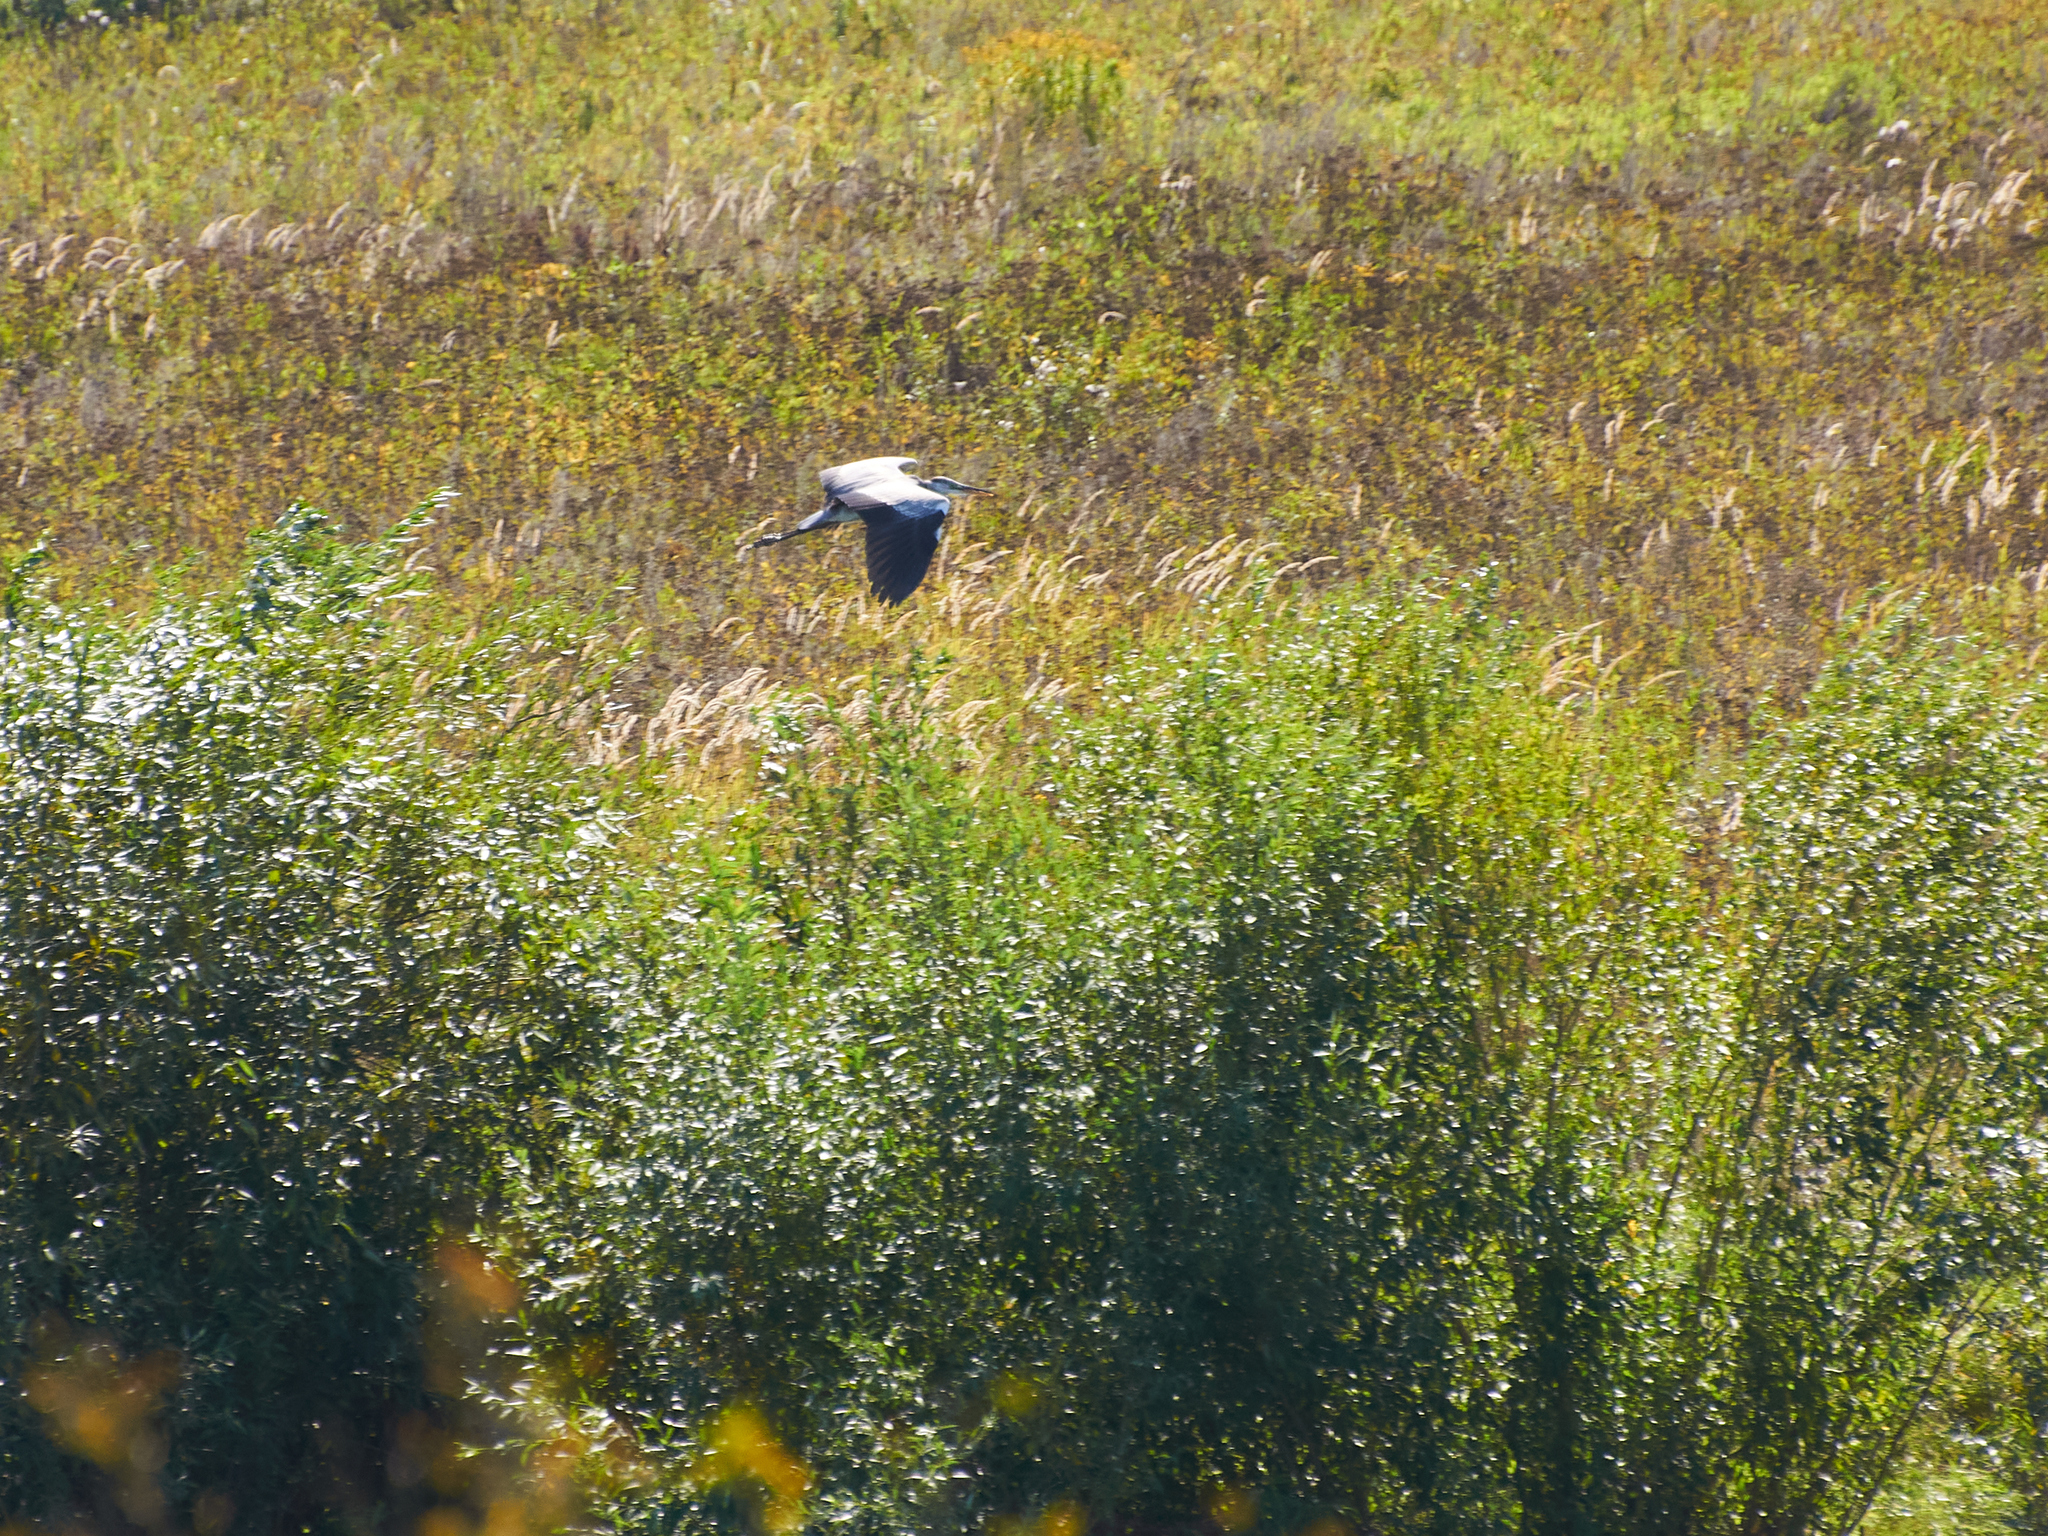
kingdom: Animalia
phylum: Chordata
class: Aves
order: Pelecaniformes
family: Ardeidae
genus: Ardea
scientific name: Ardea cinerea
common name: Grey heron
